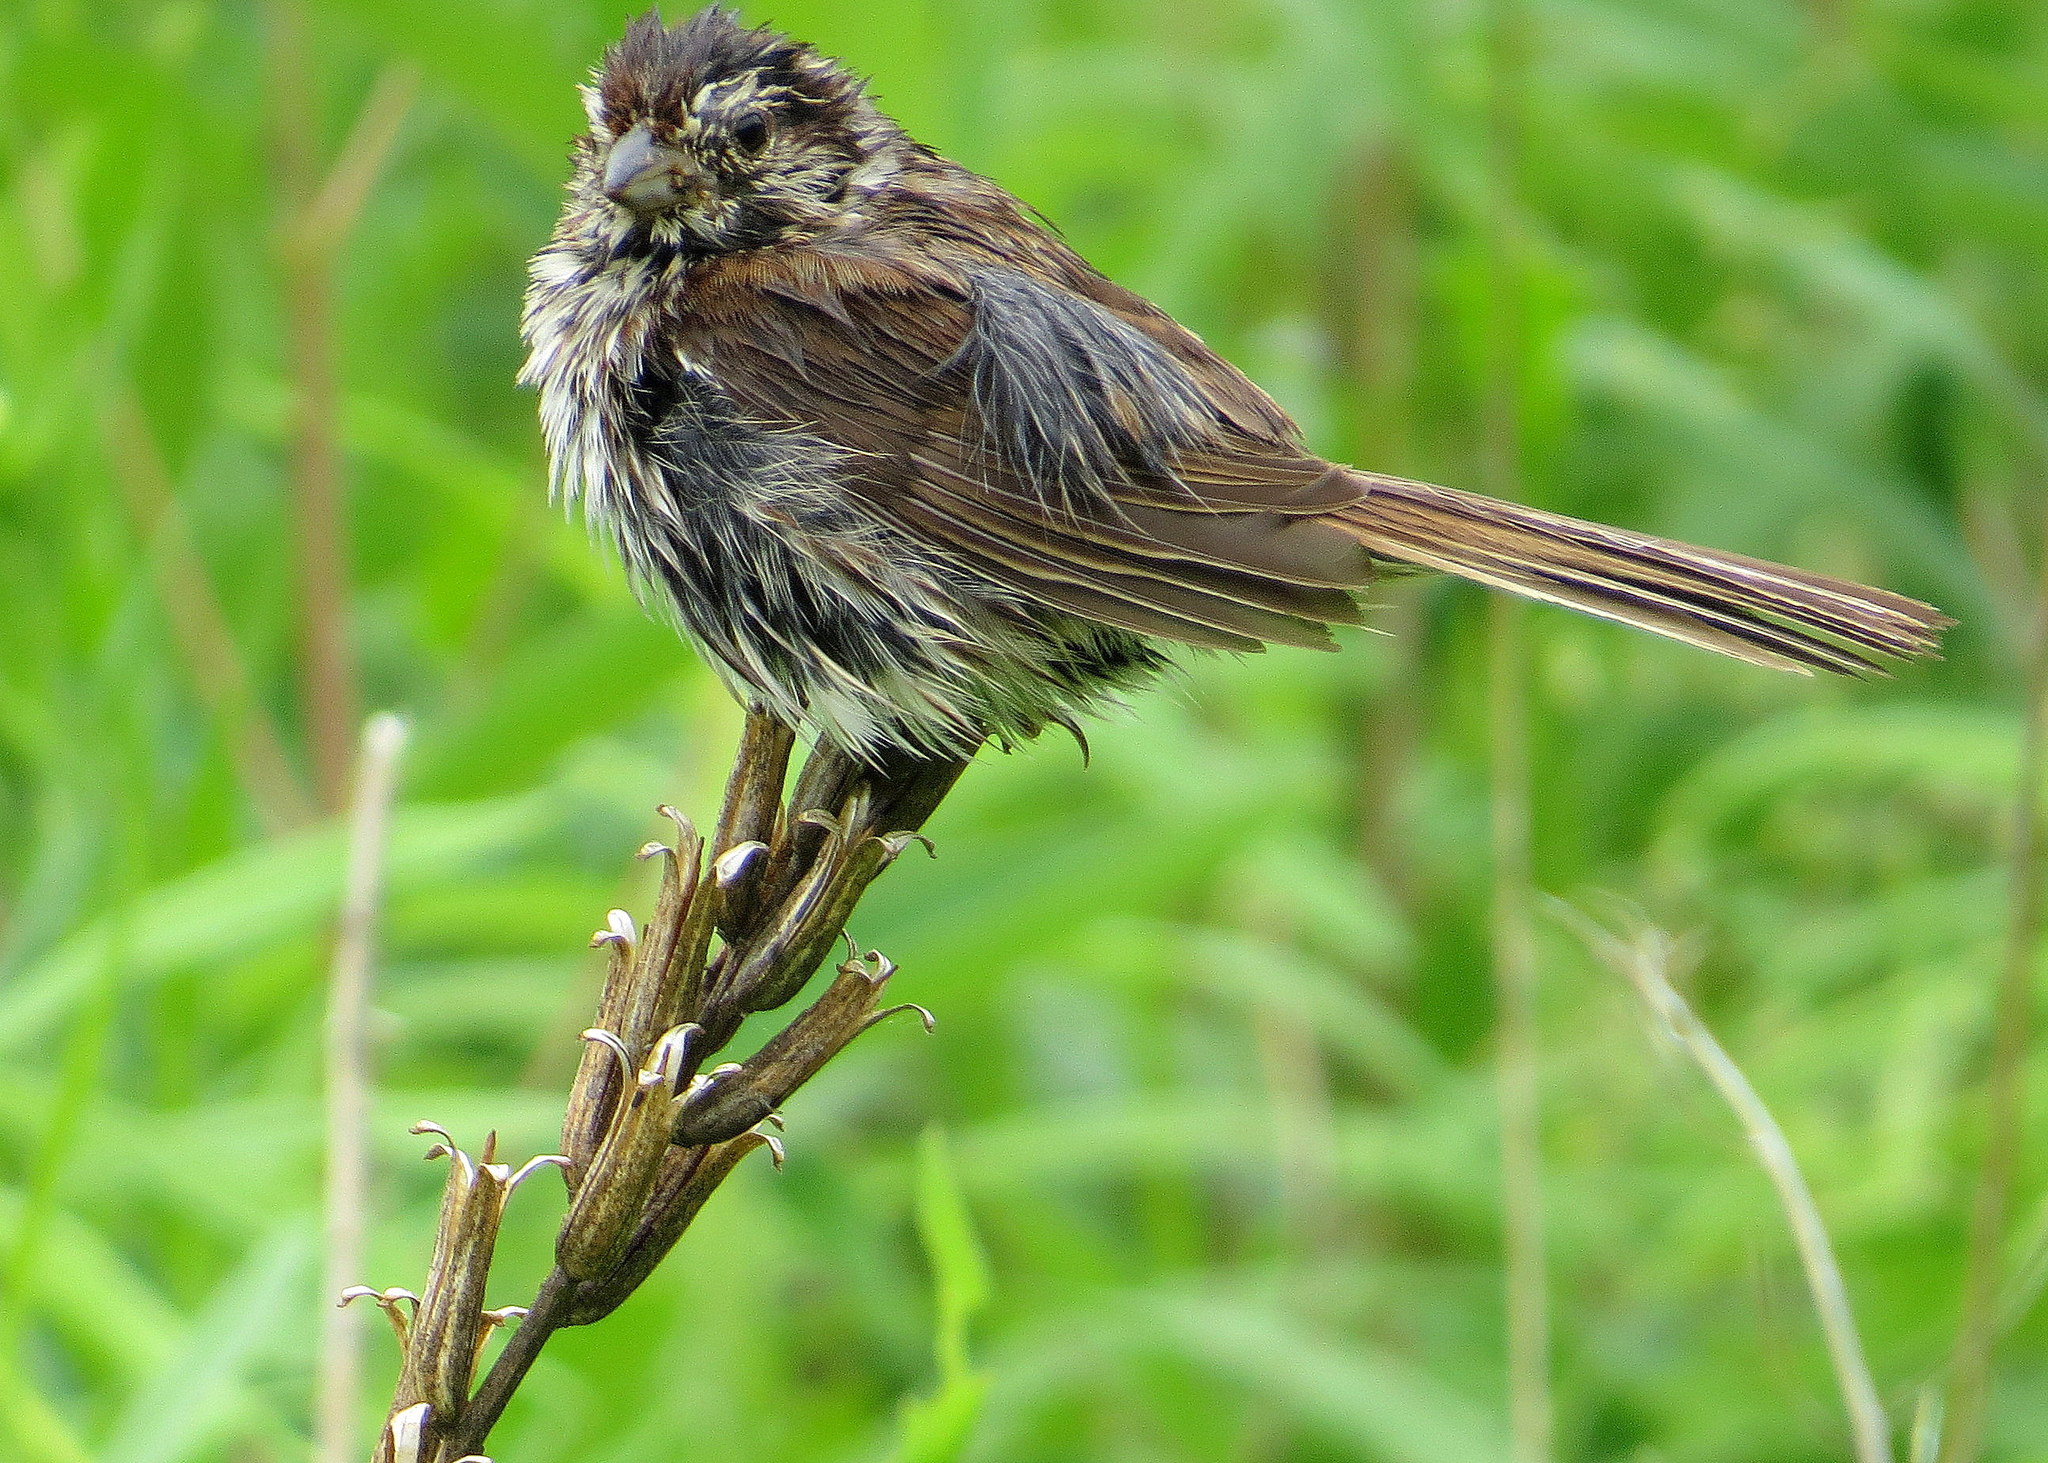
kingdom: Animalia
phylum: Chordata
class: Aves
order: Passeriformes
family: Passerellidae
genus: Melospiza
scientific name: Melospiza melodia
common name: Song sparrow
